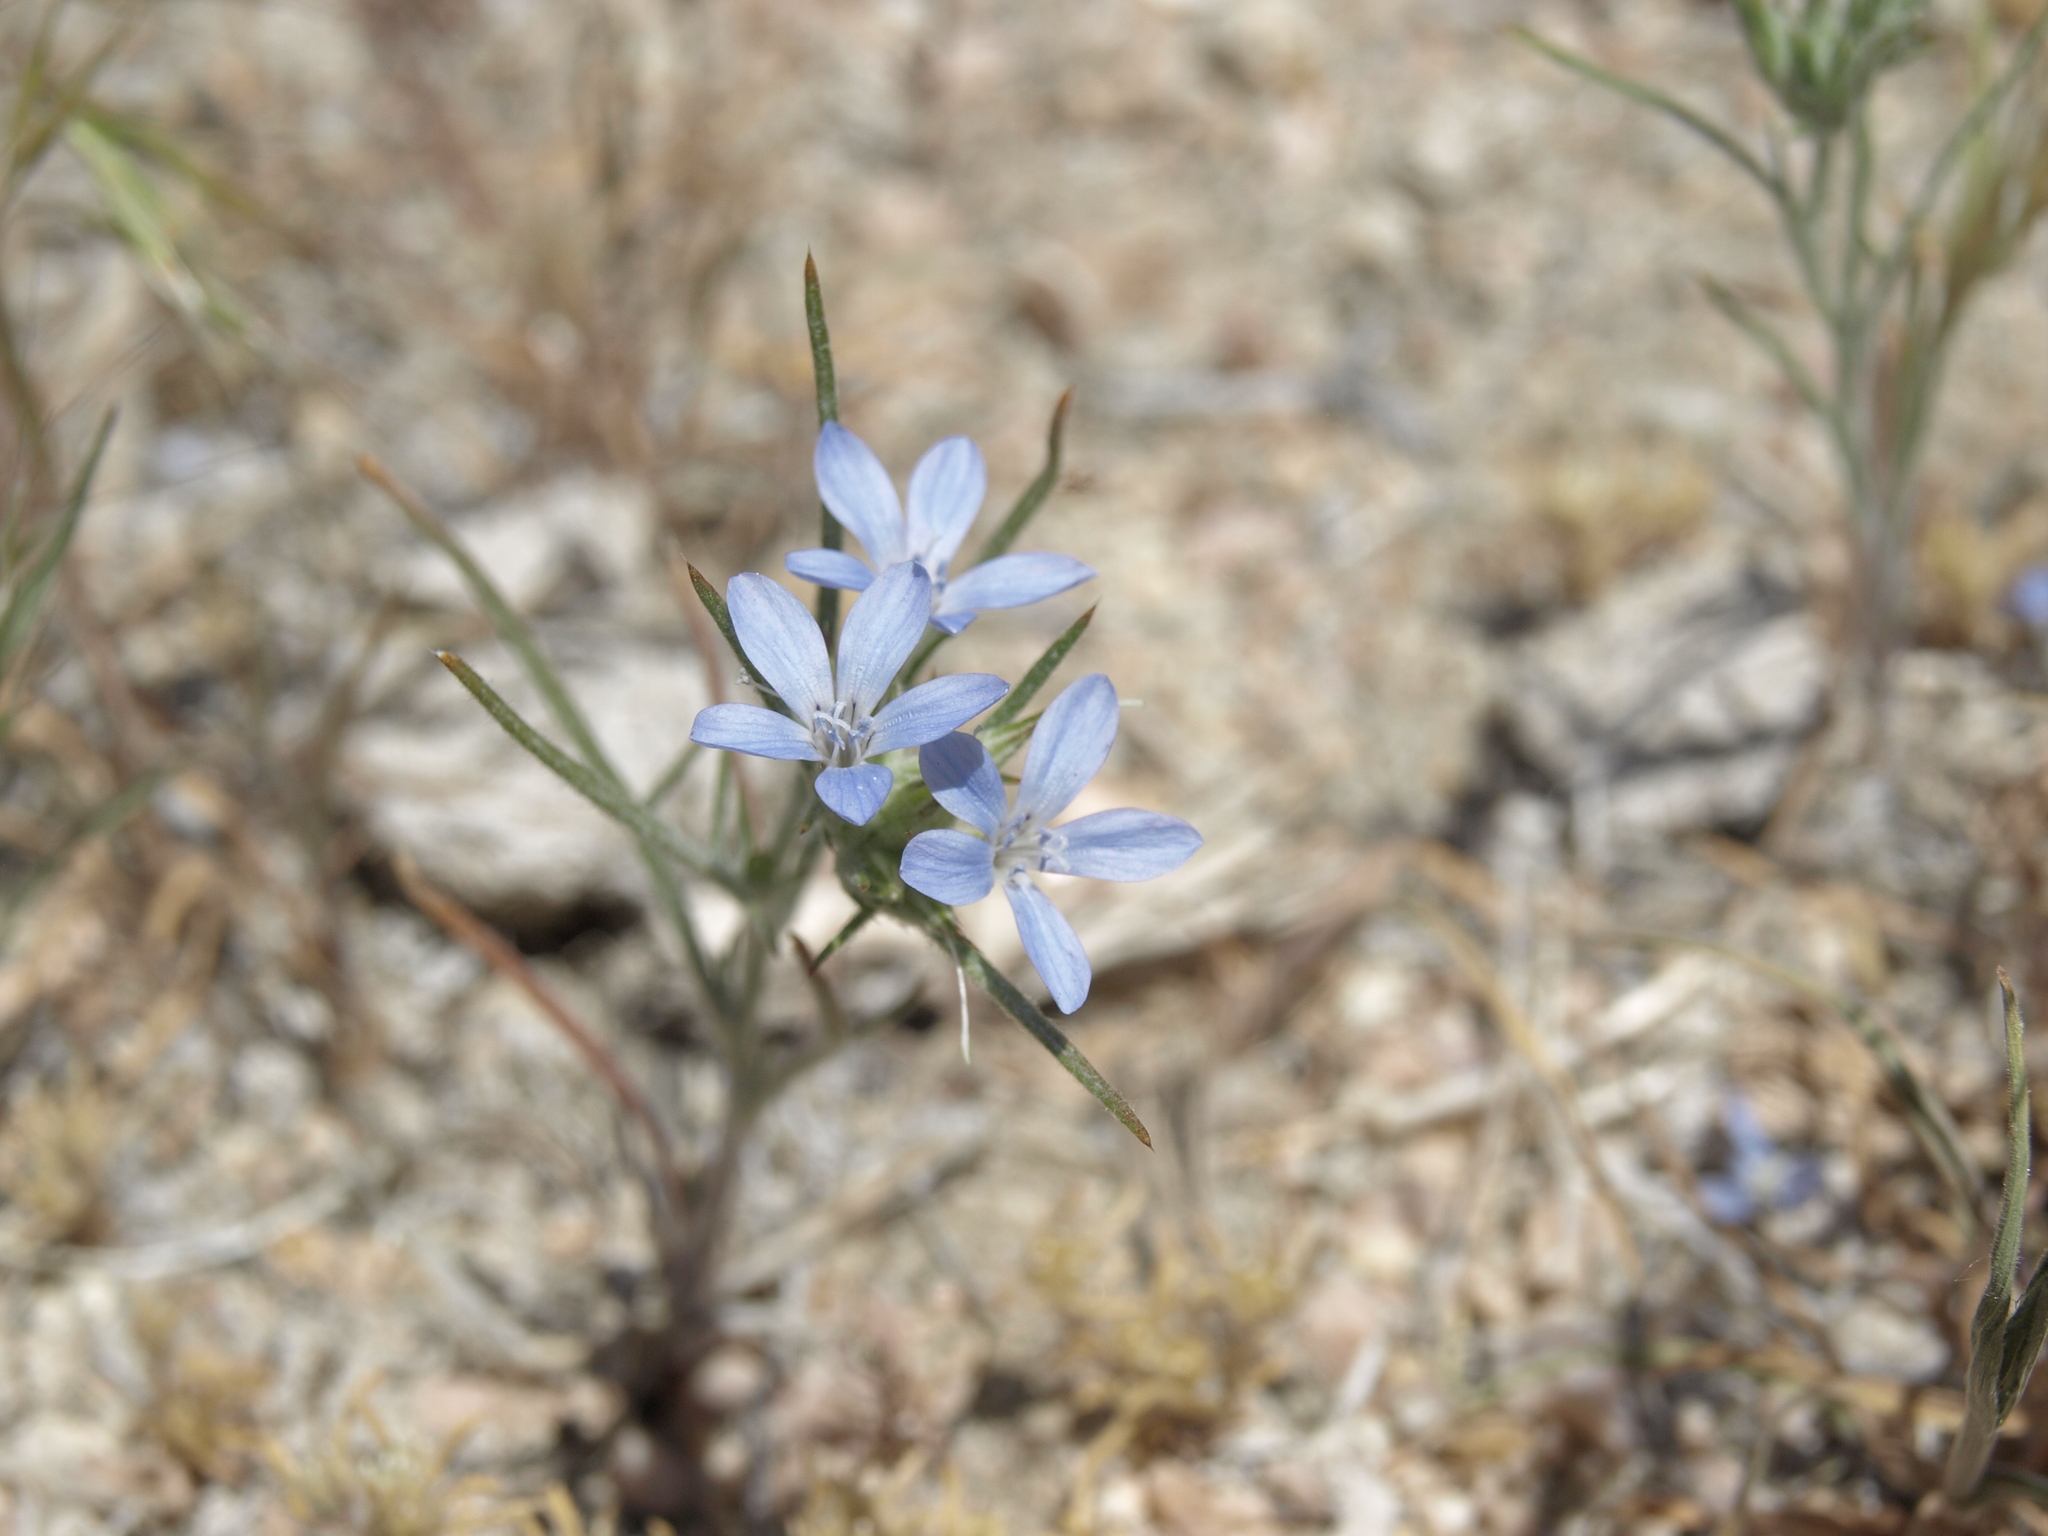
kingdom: Plantae
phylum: Tracheophyta
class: Magnoliopsida
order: Ericales
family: Polemoniaceae
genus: Eriastrum
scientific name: Eriastrum wilcoxii
